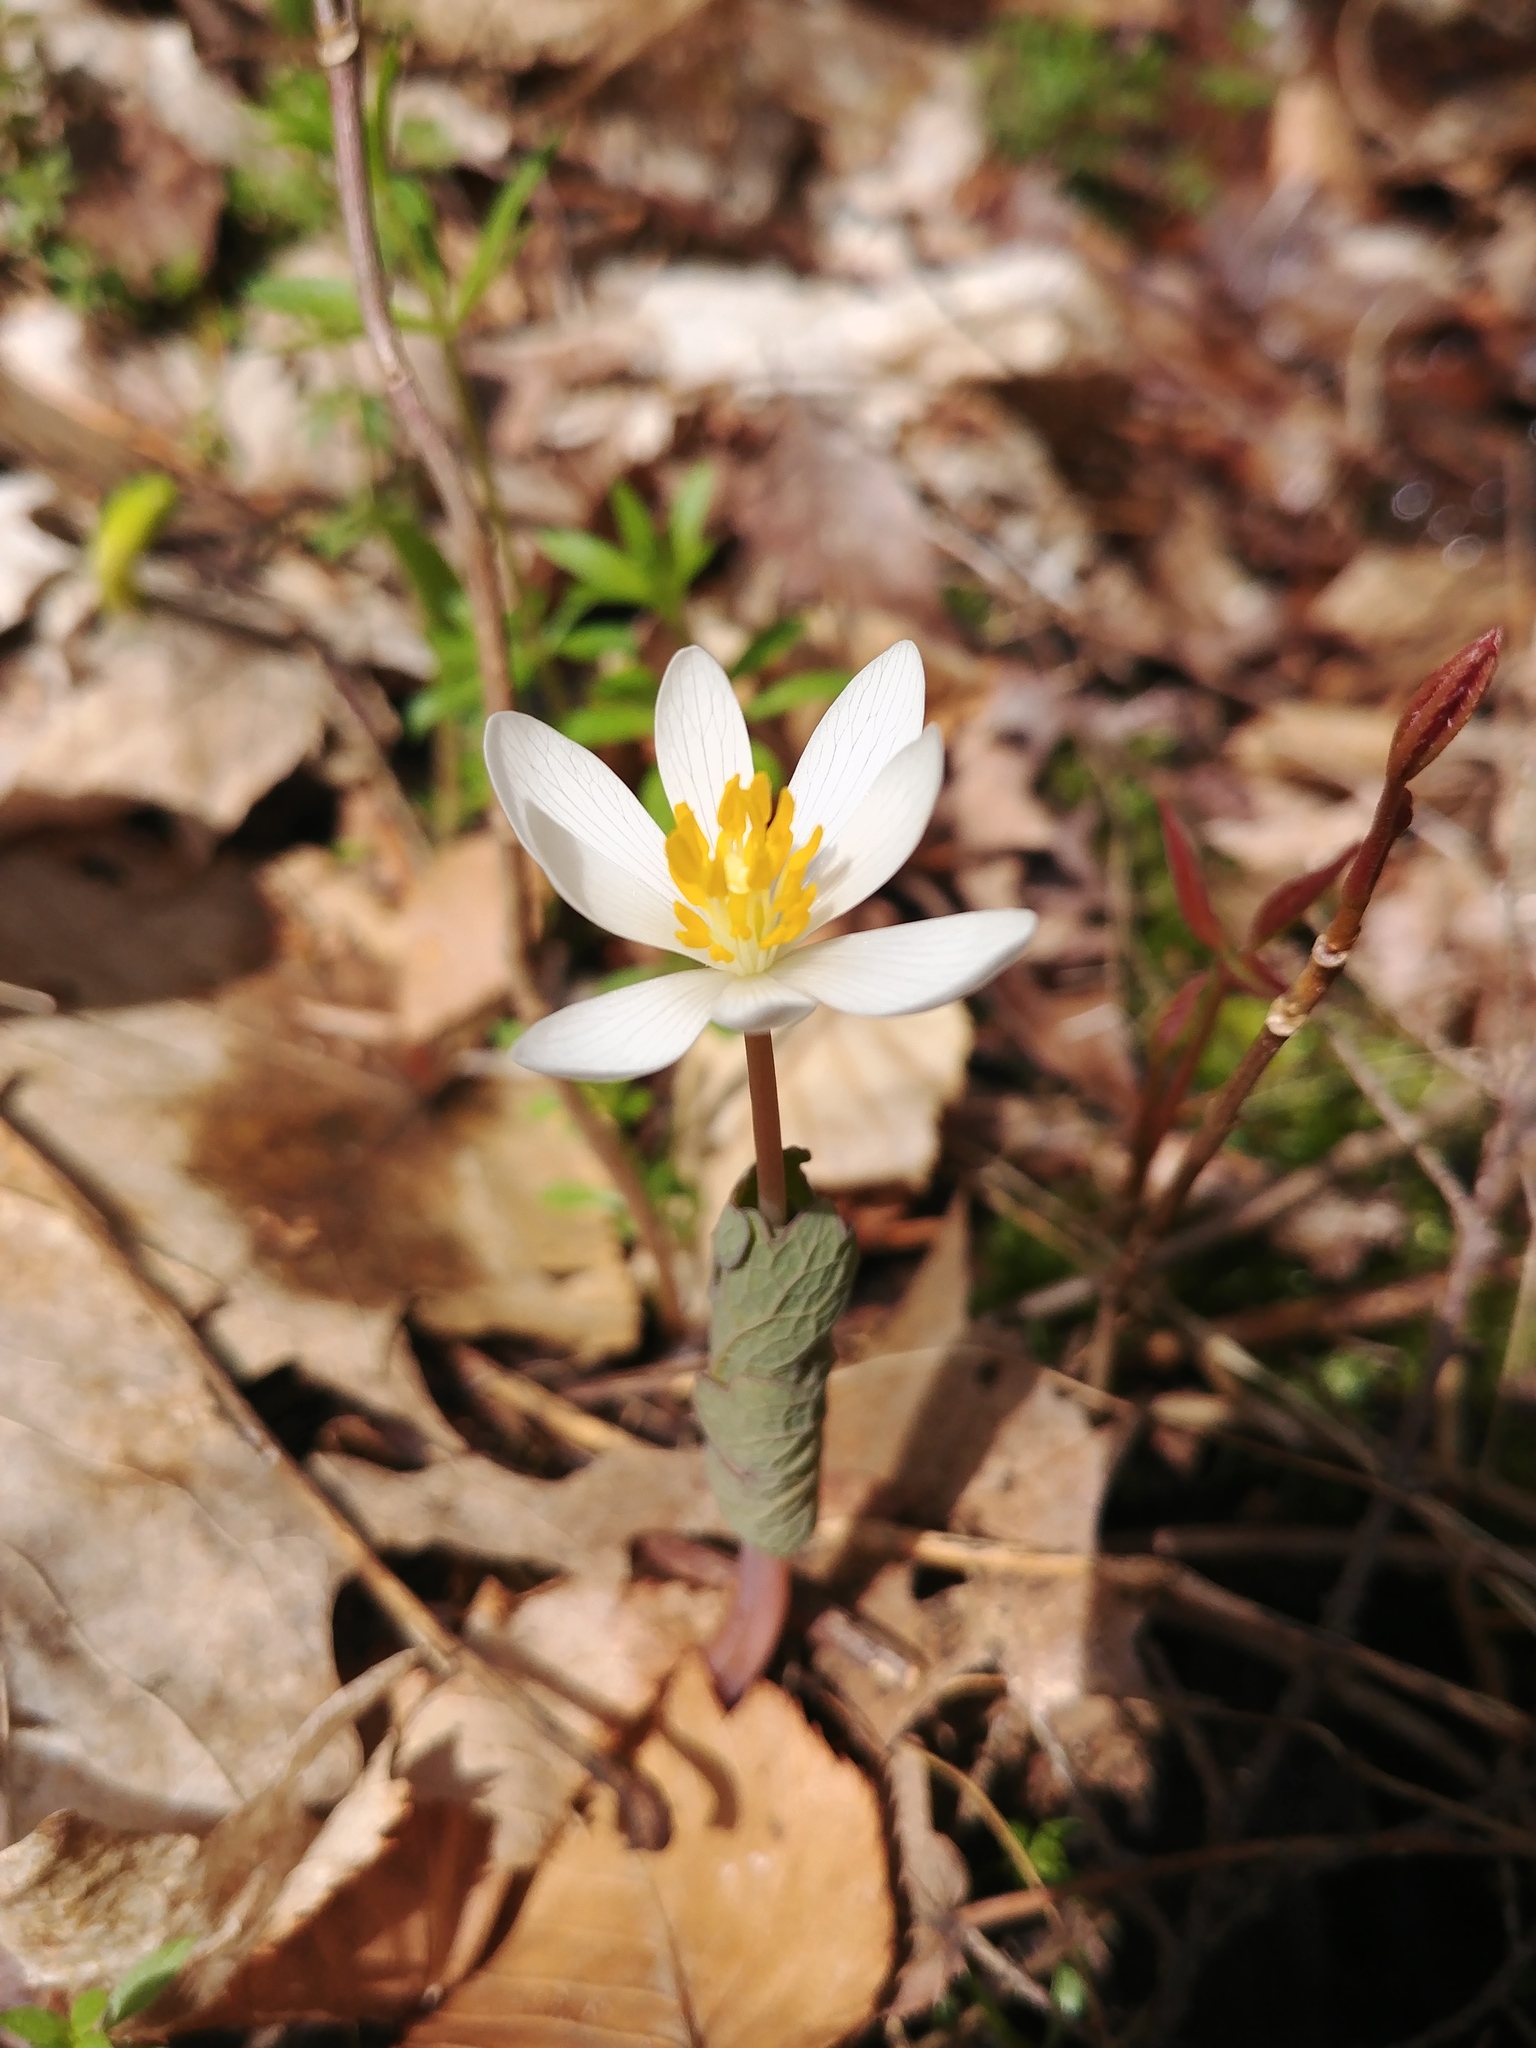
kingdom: Plantae
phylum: Tracheophyta
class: Magnoliopsida
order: Ranunculales
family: Papaveraceae
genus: Sanguinaria
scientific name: Sanguinaria canadensis
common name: Bloodroot
